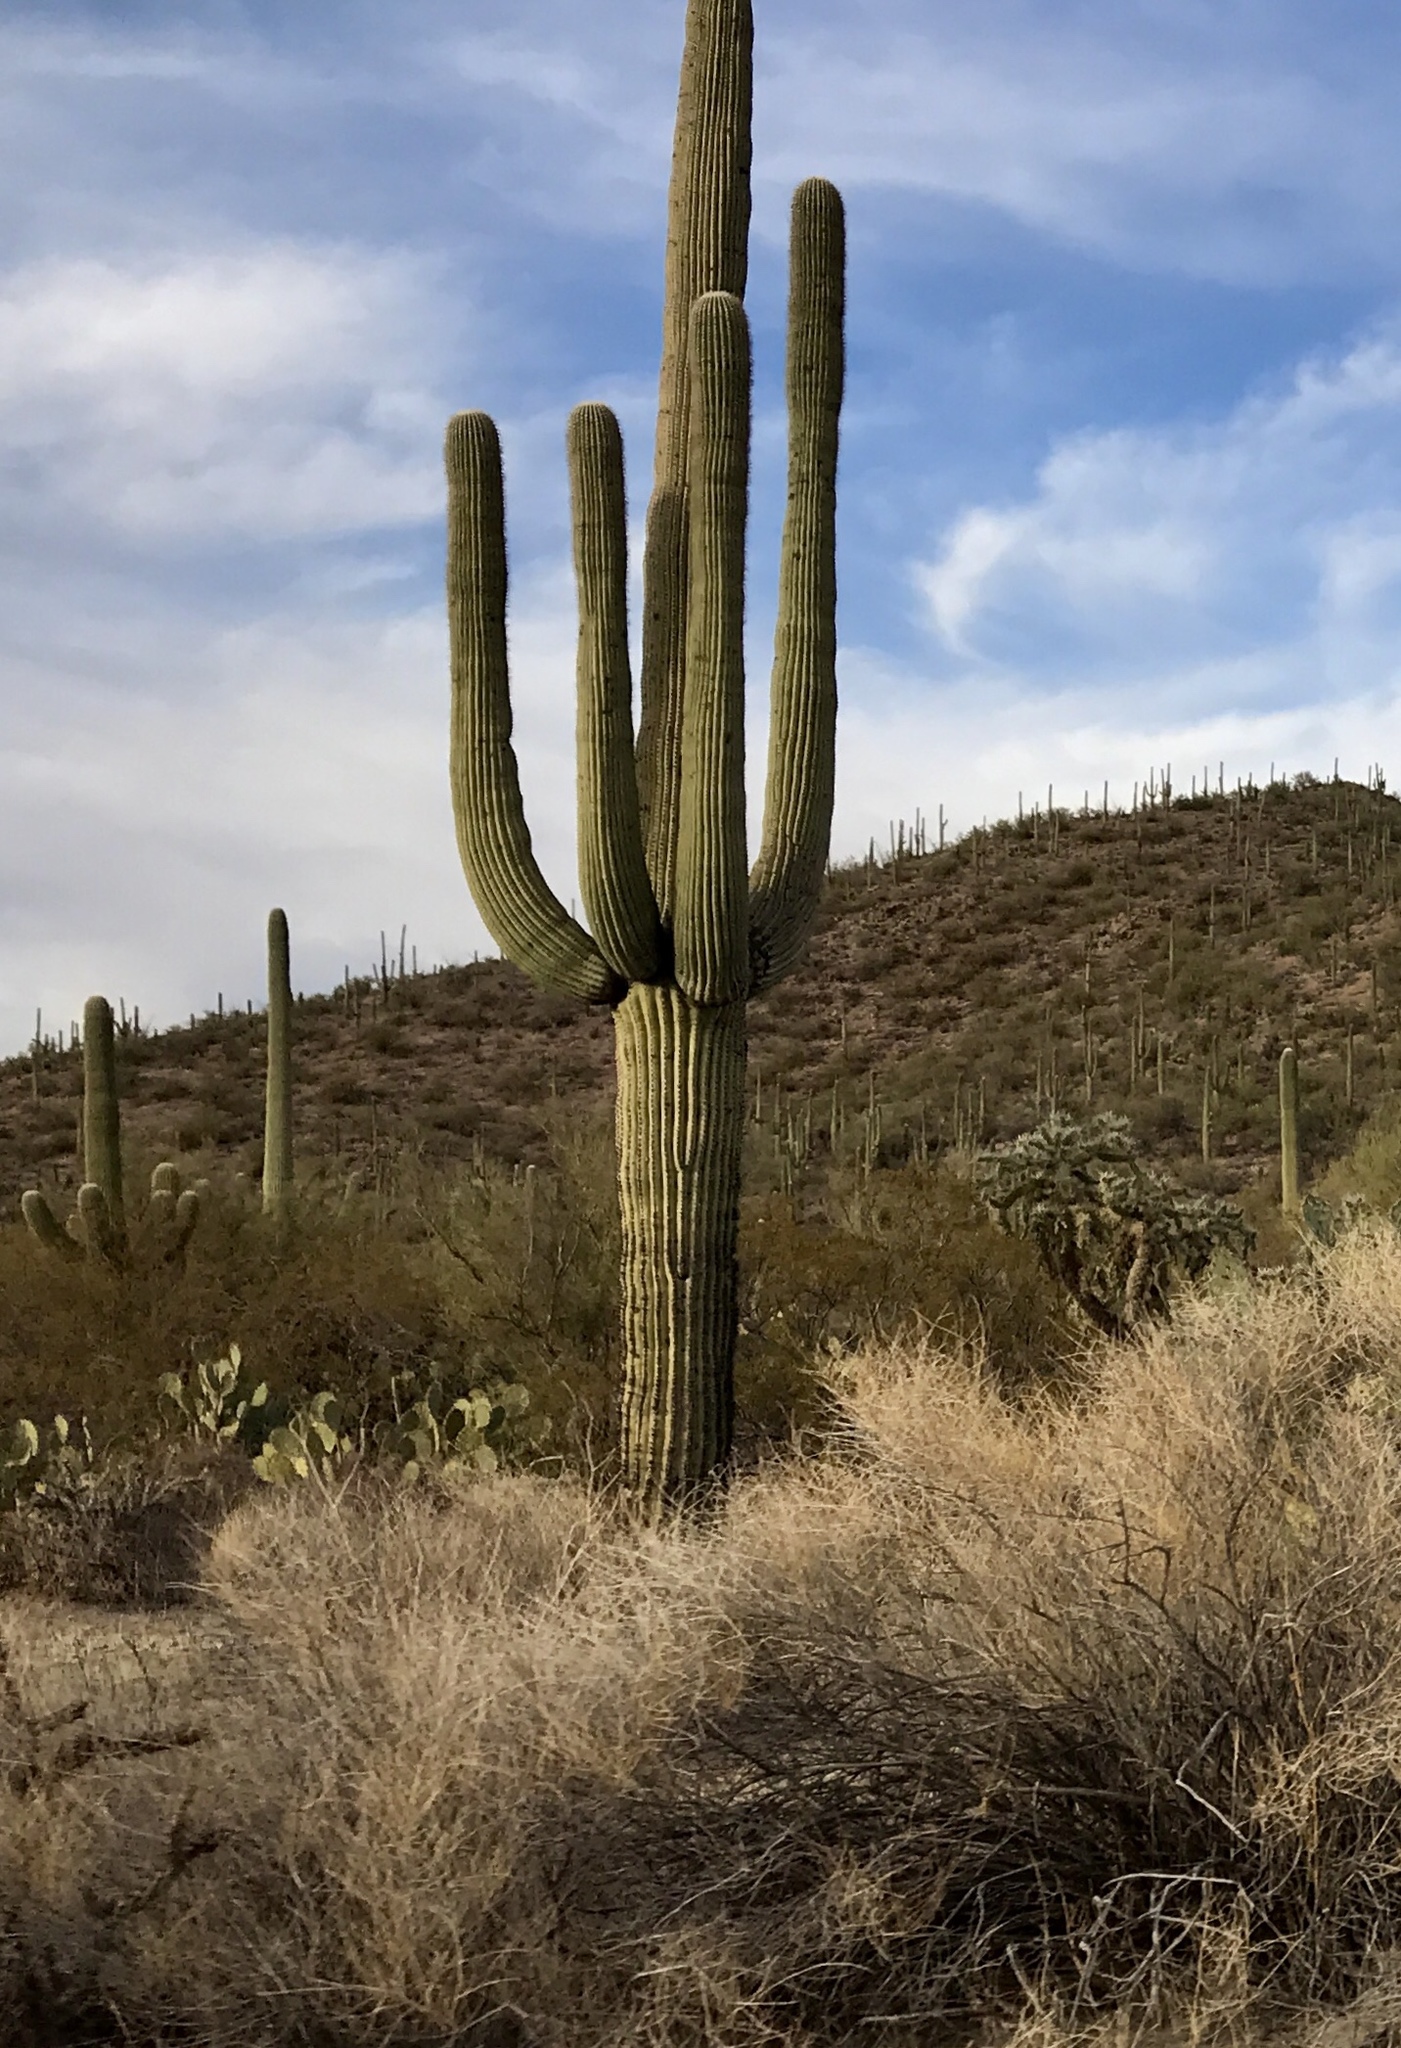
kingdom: Plantae
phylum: Tracheophyta
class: Magnoliopsida
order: Caryophyllales
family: Cactaceae
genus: Carnegiea
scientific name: Carnegiea gigantea
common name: Saguaro
